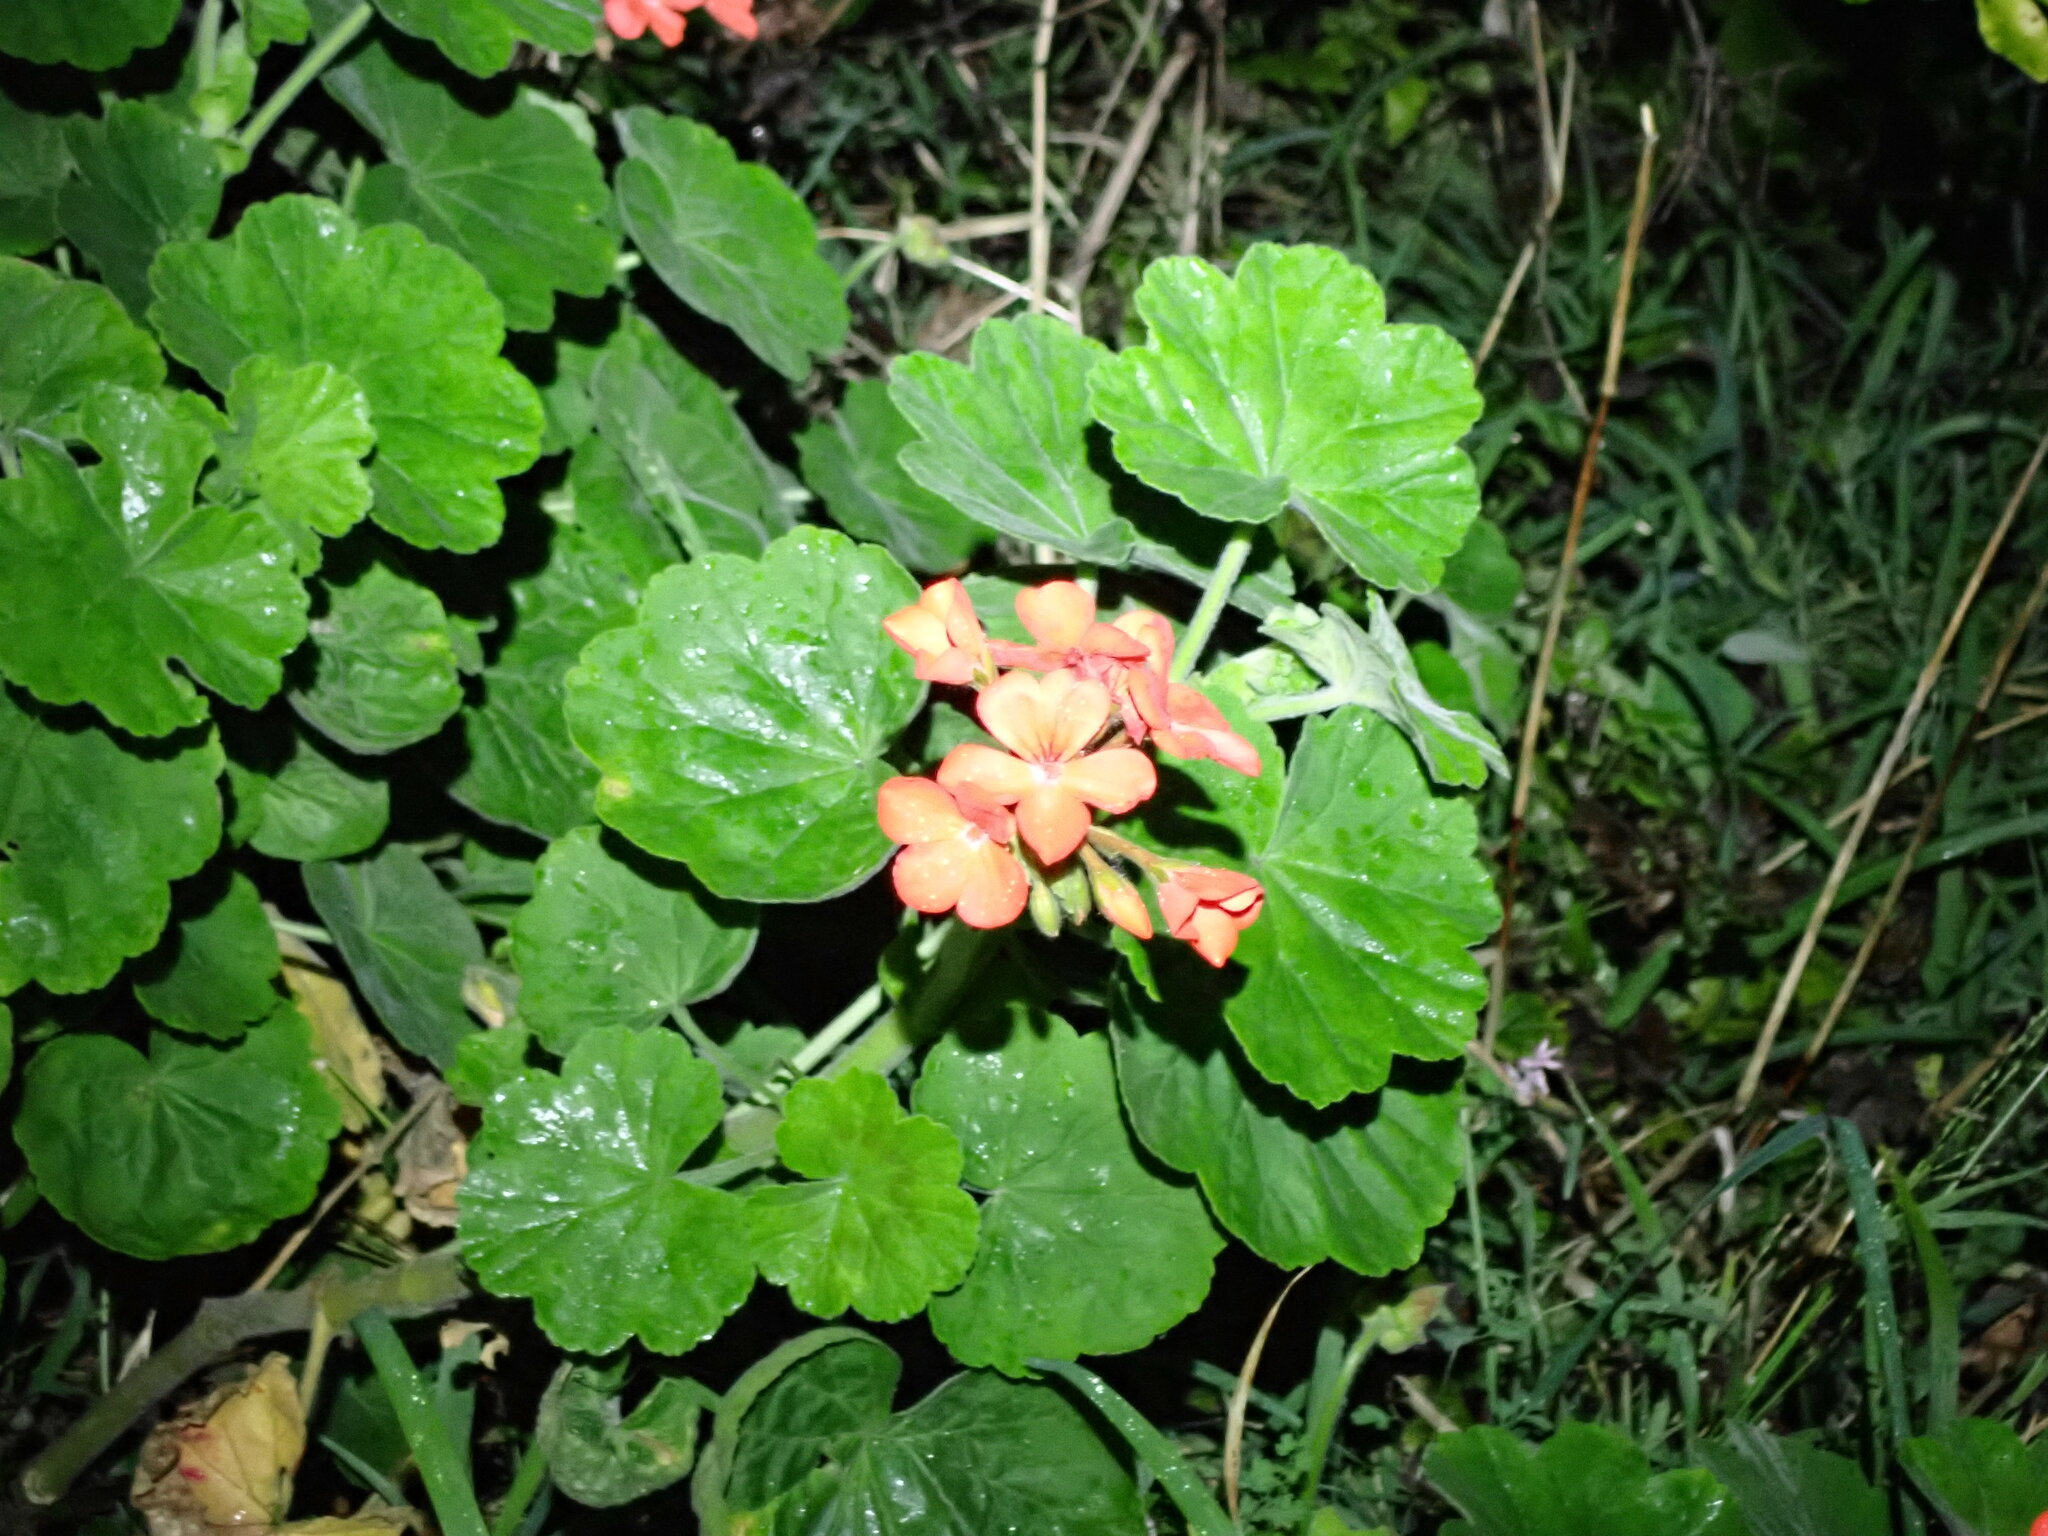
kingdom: Plantae
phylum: Tracheophyta
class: Magnoliopsida
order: Geraniales
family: Geraniaceae
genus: Pelargonium
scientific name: Pelargonium hybridum
